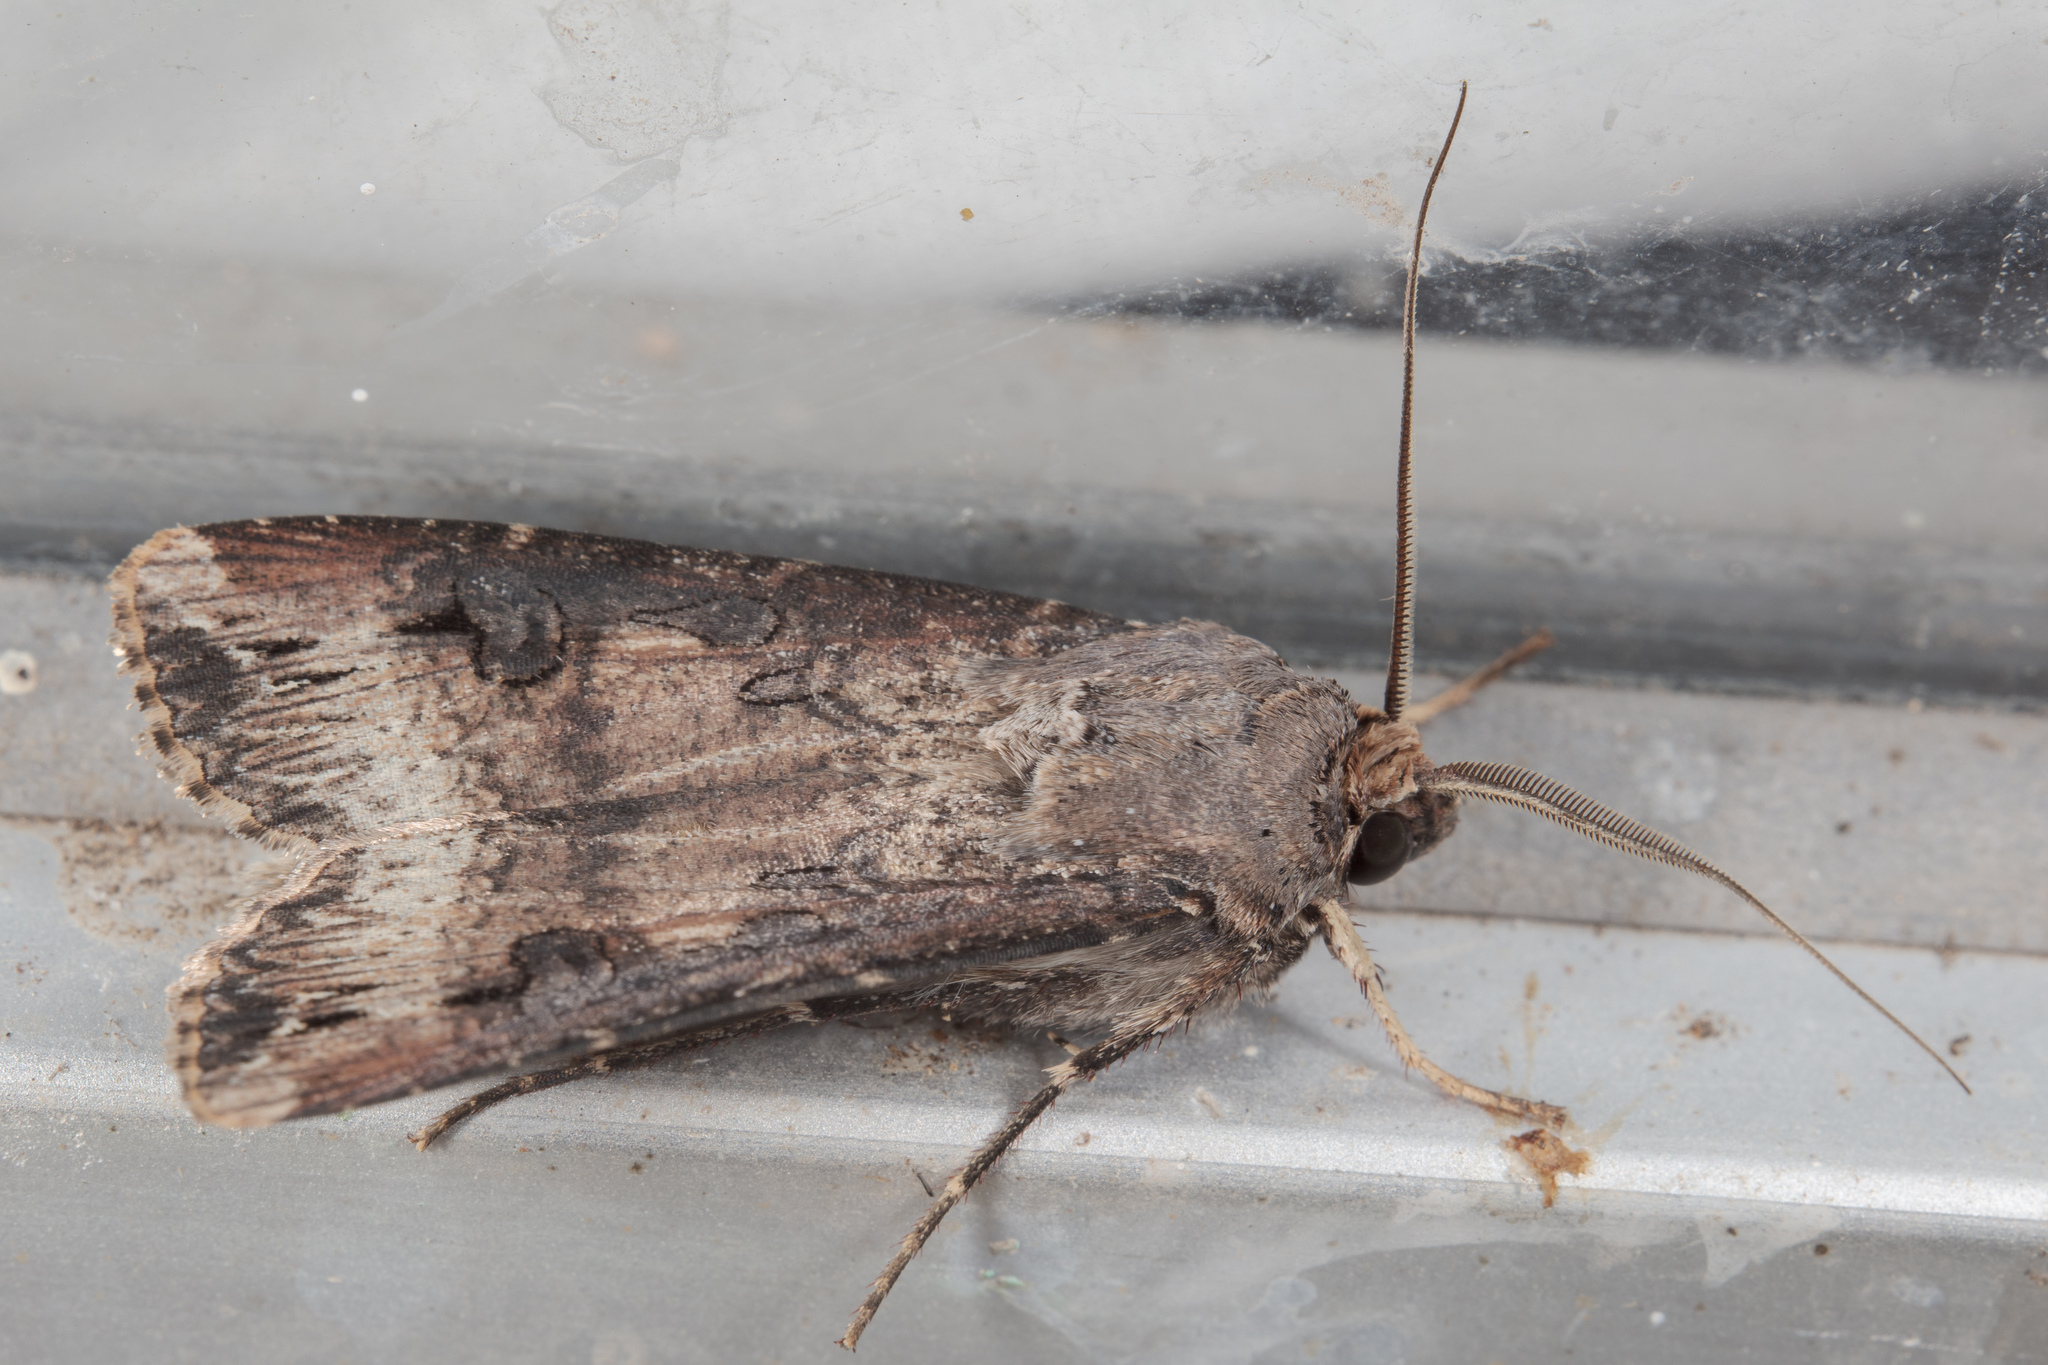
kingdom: Animalia
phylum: Arthropoda
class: Insecta
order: Lepidoptera
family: Noctuidae
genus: Agrotis
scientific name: Agrotis ipsilon
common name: Dark sword-grass
